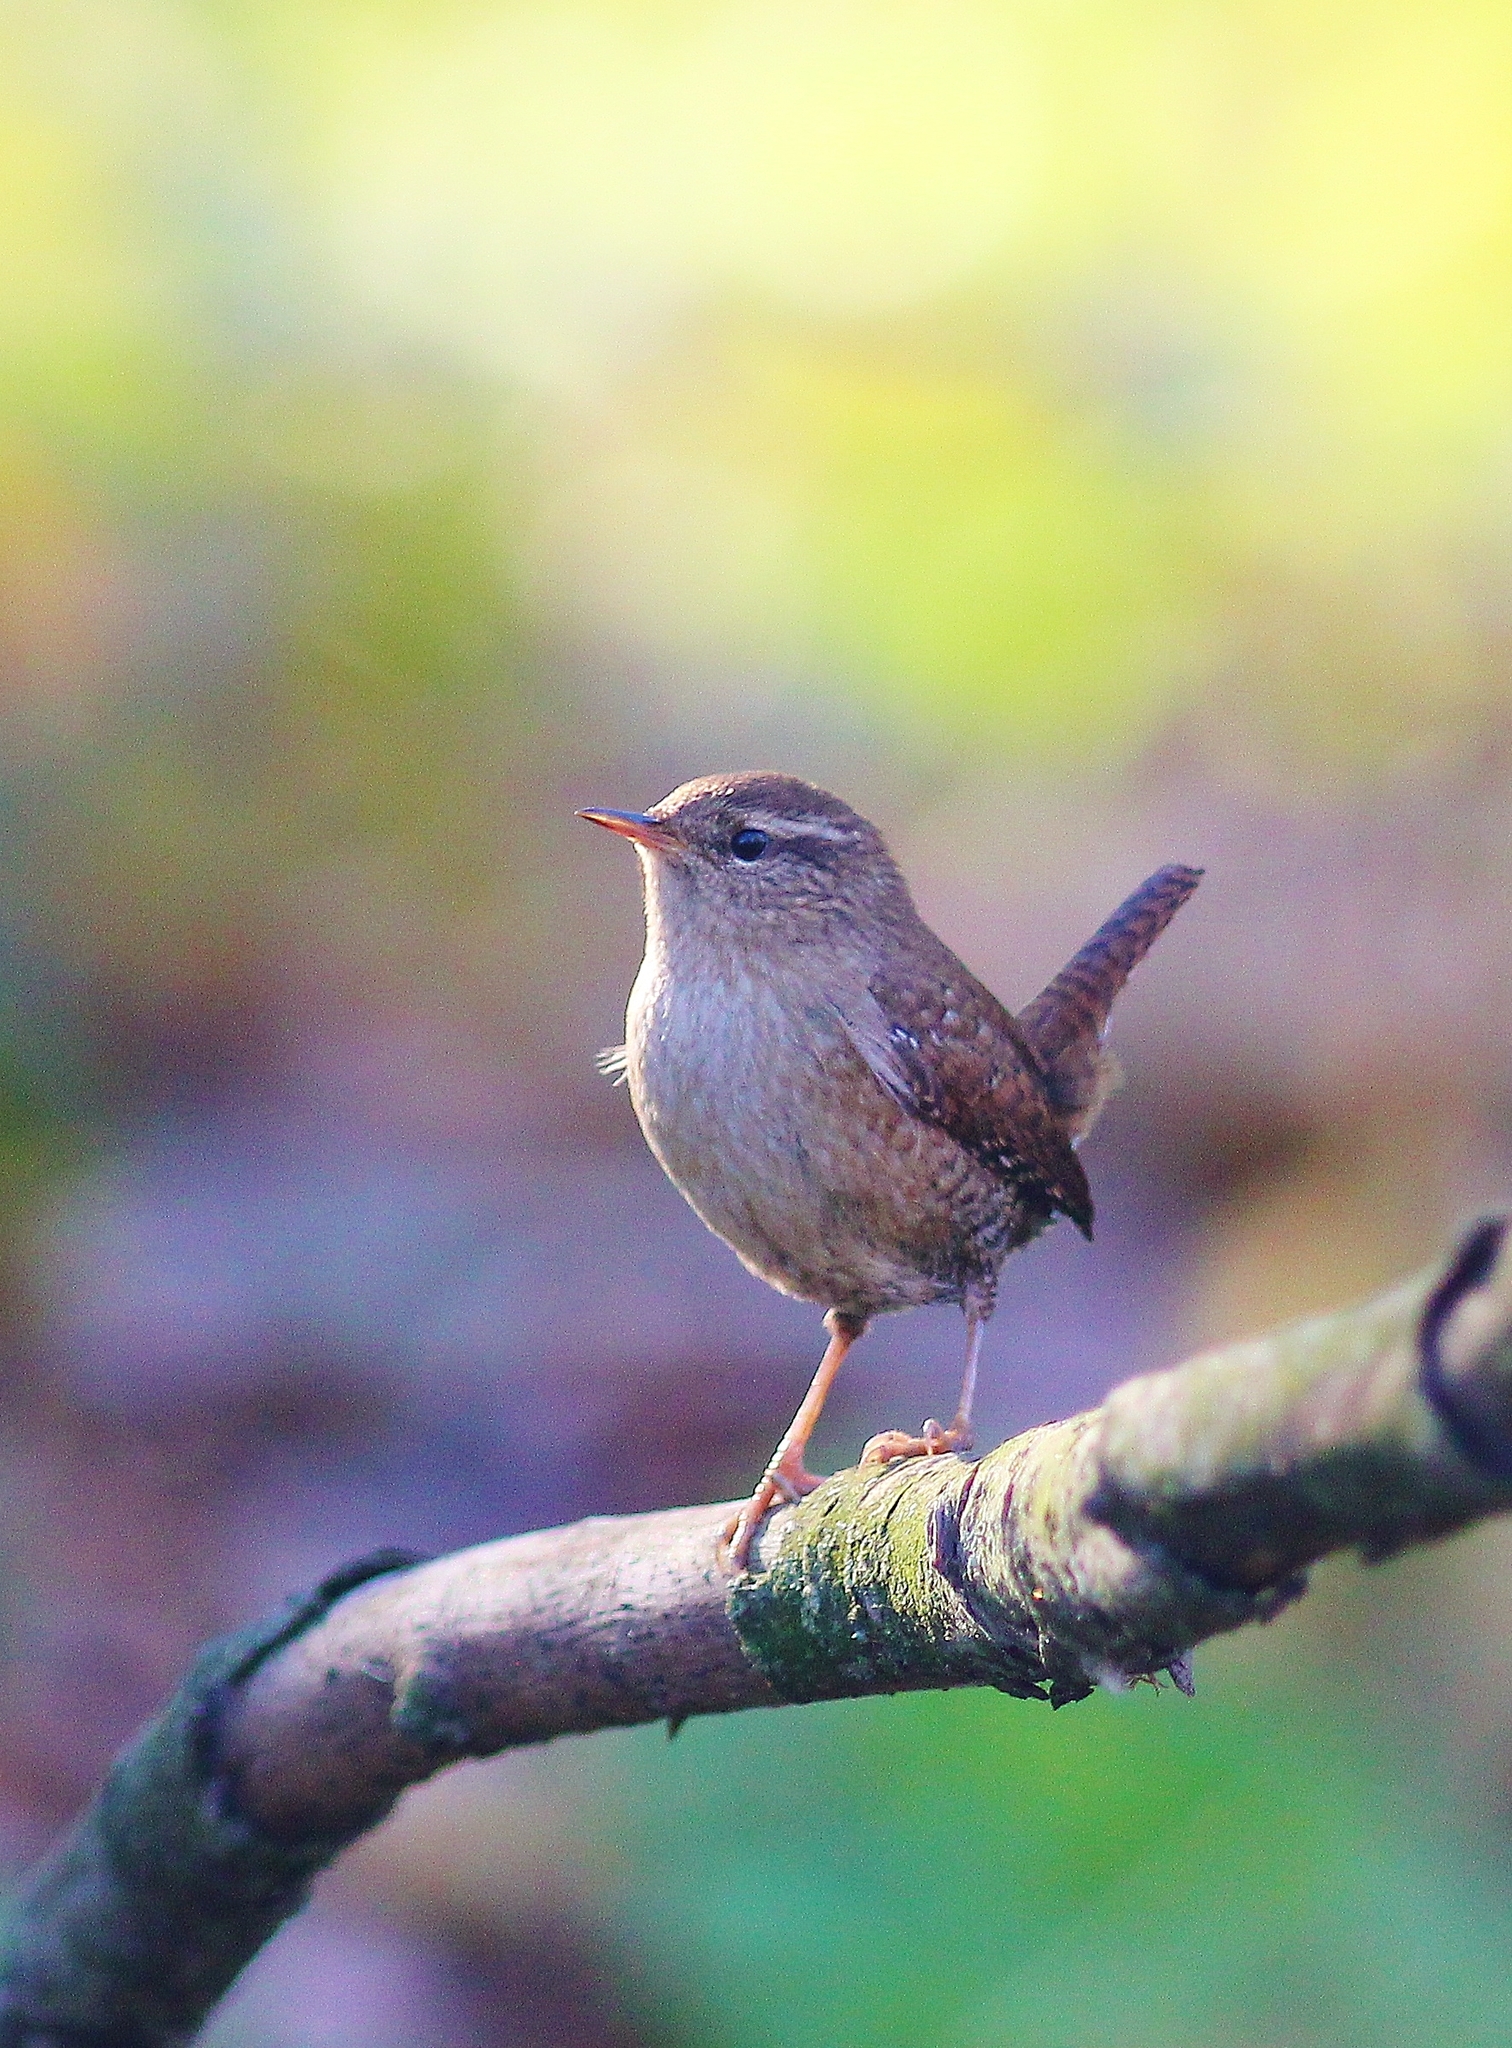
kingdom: Animalia
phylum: Chordata
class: Aves
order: Passeriformes
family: Troglodytidae
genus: Troglodytes
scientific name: Troglodytes troglodytes
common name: Eurasian wren
